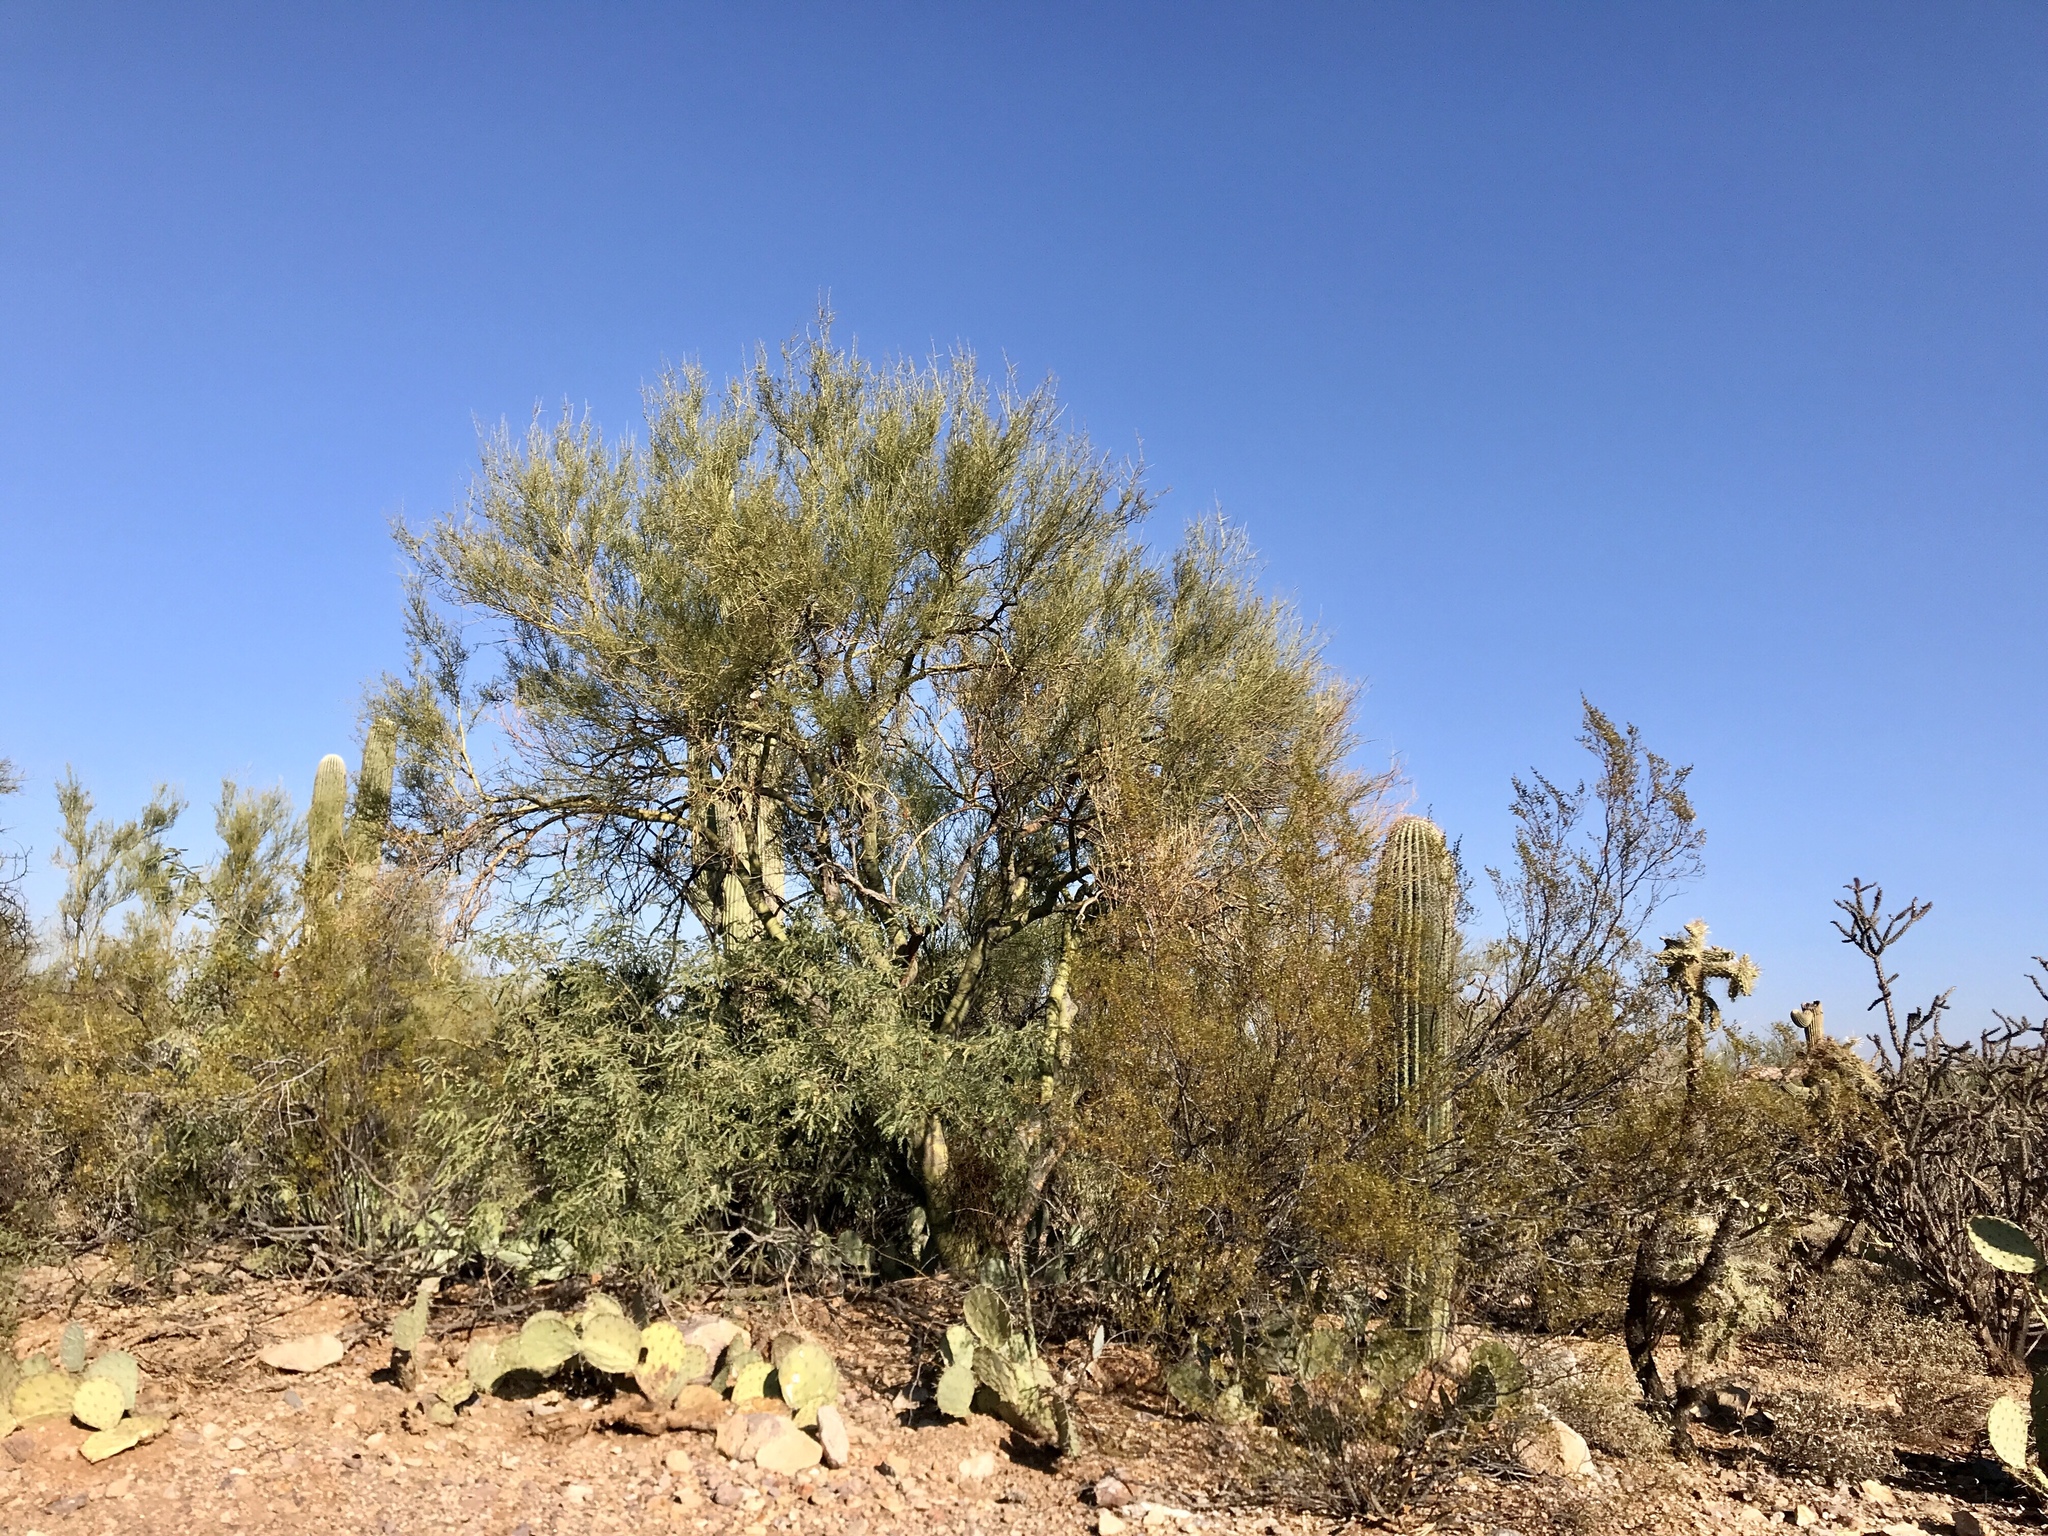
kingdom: Plantae
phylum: Tracheophyta
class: Magnoliopsida
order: Fabales
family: Fabaceae
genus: Parkinsonia
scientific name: Parkinsonia microphylla
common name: Yellow paloverde
